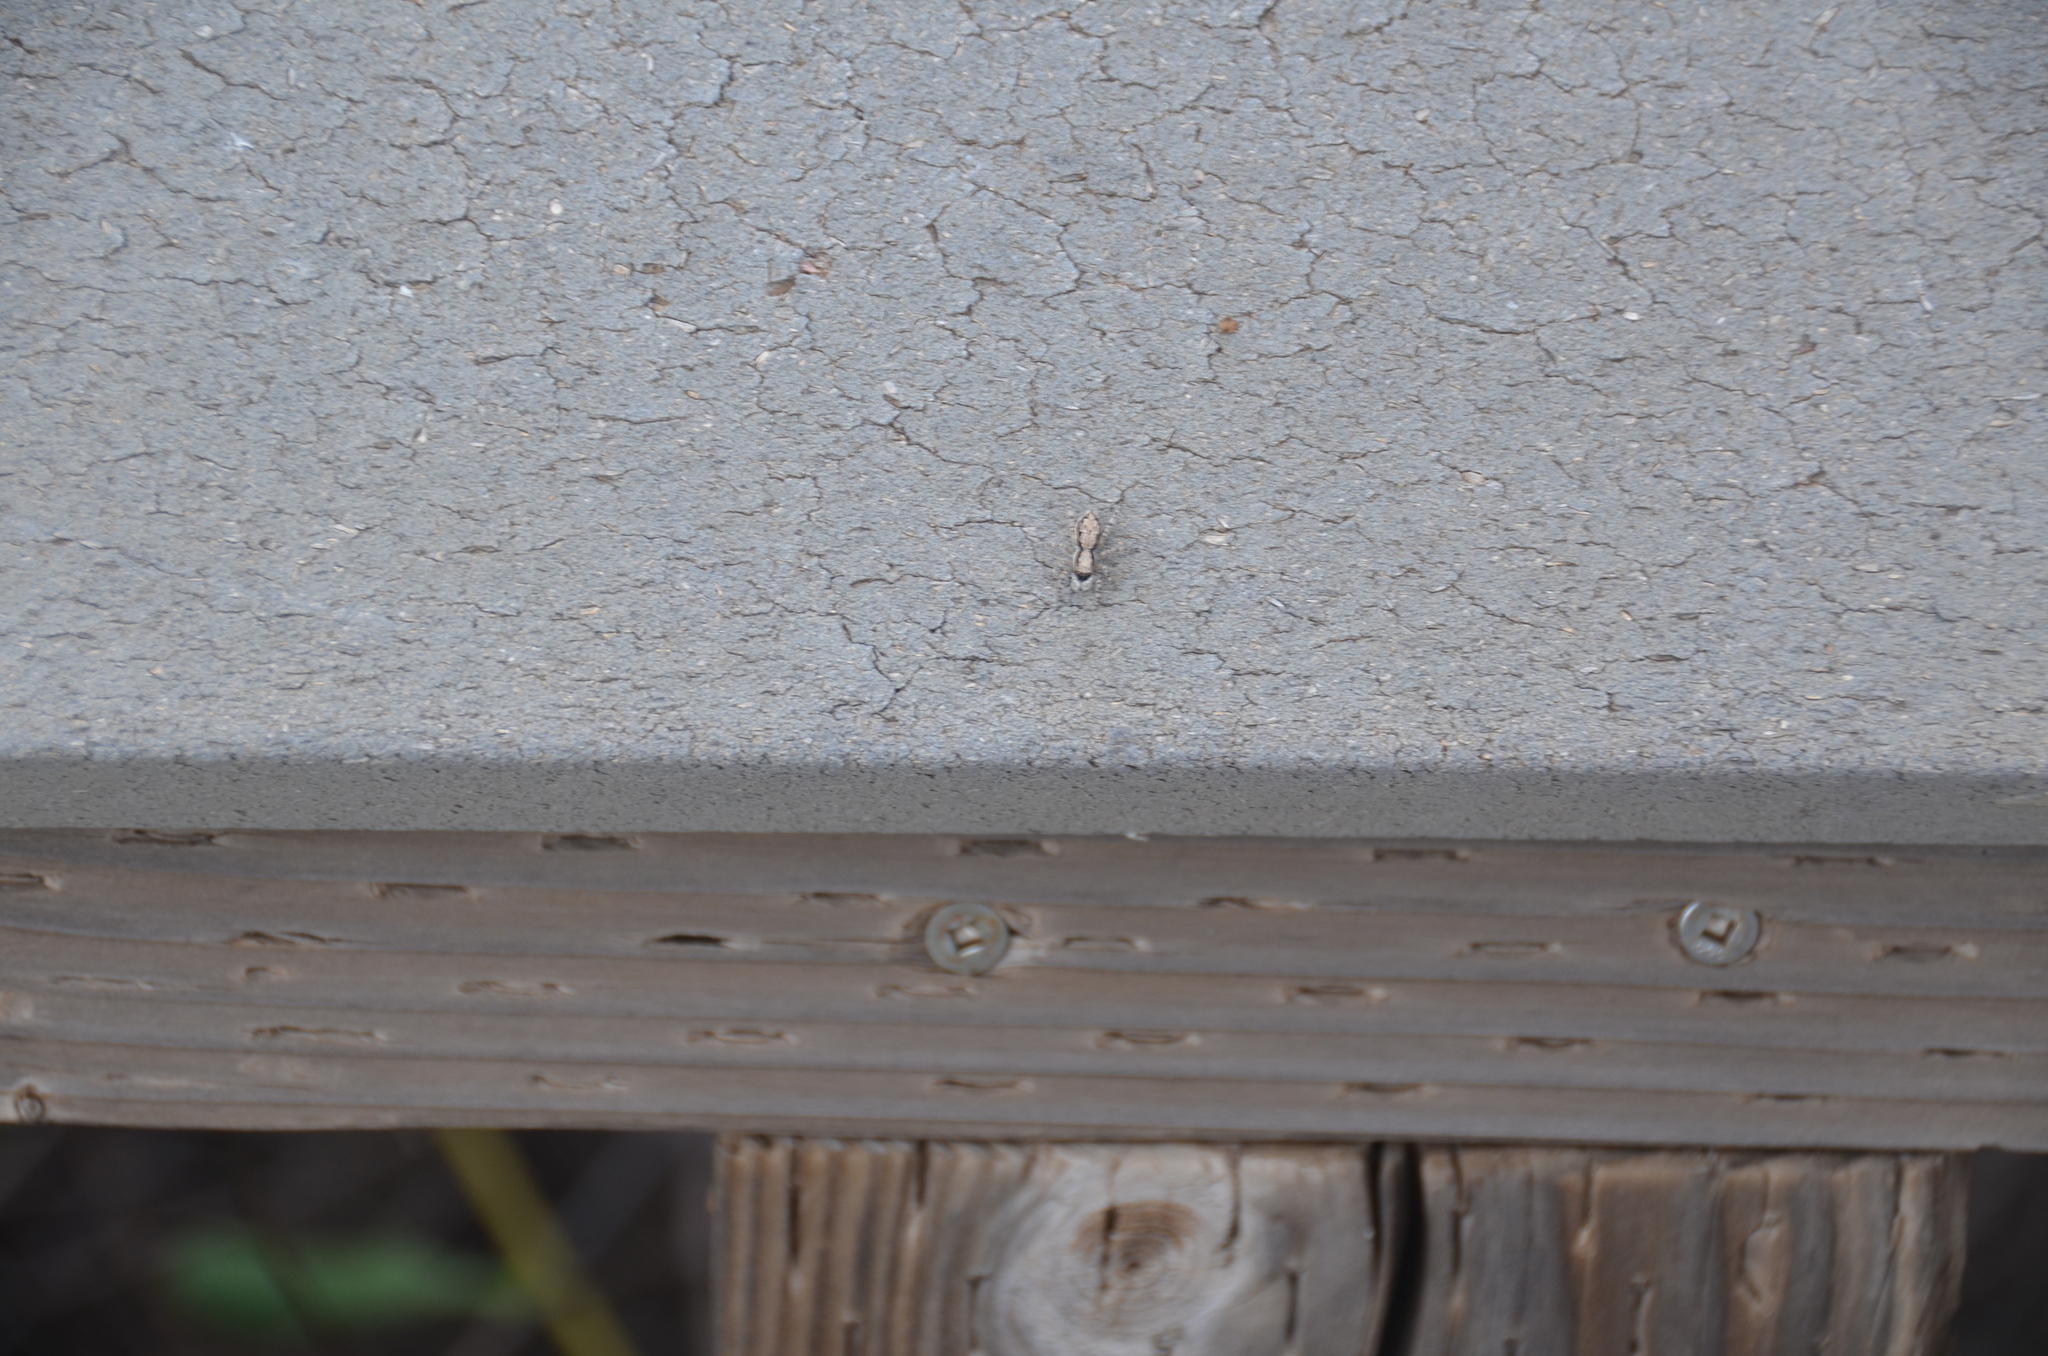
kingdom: Animalia
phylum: Arthropoda
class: Arachnida
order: Araneae
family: Salticidae
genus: Menemerus
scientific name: Menemerus bivittatus
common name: Gray wall jumper
